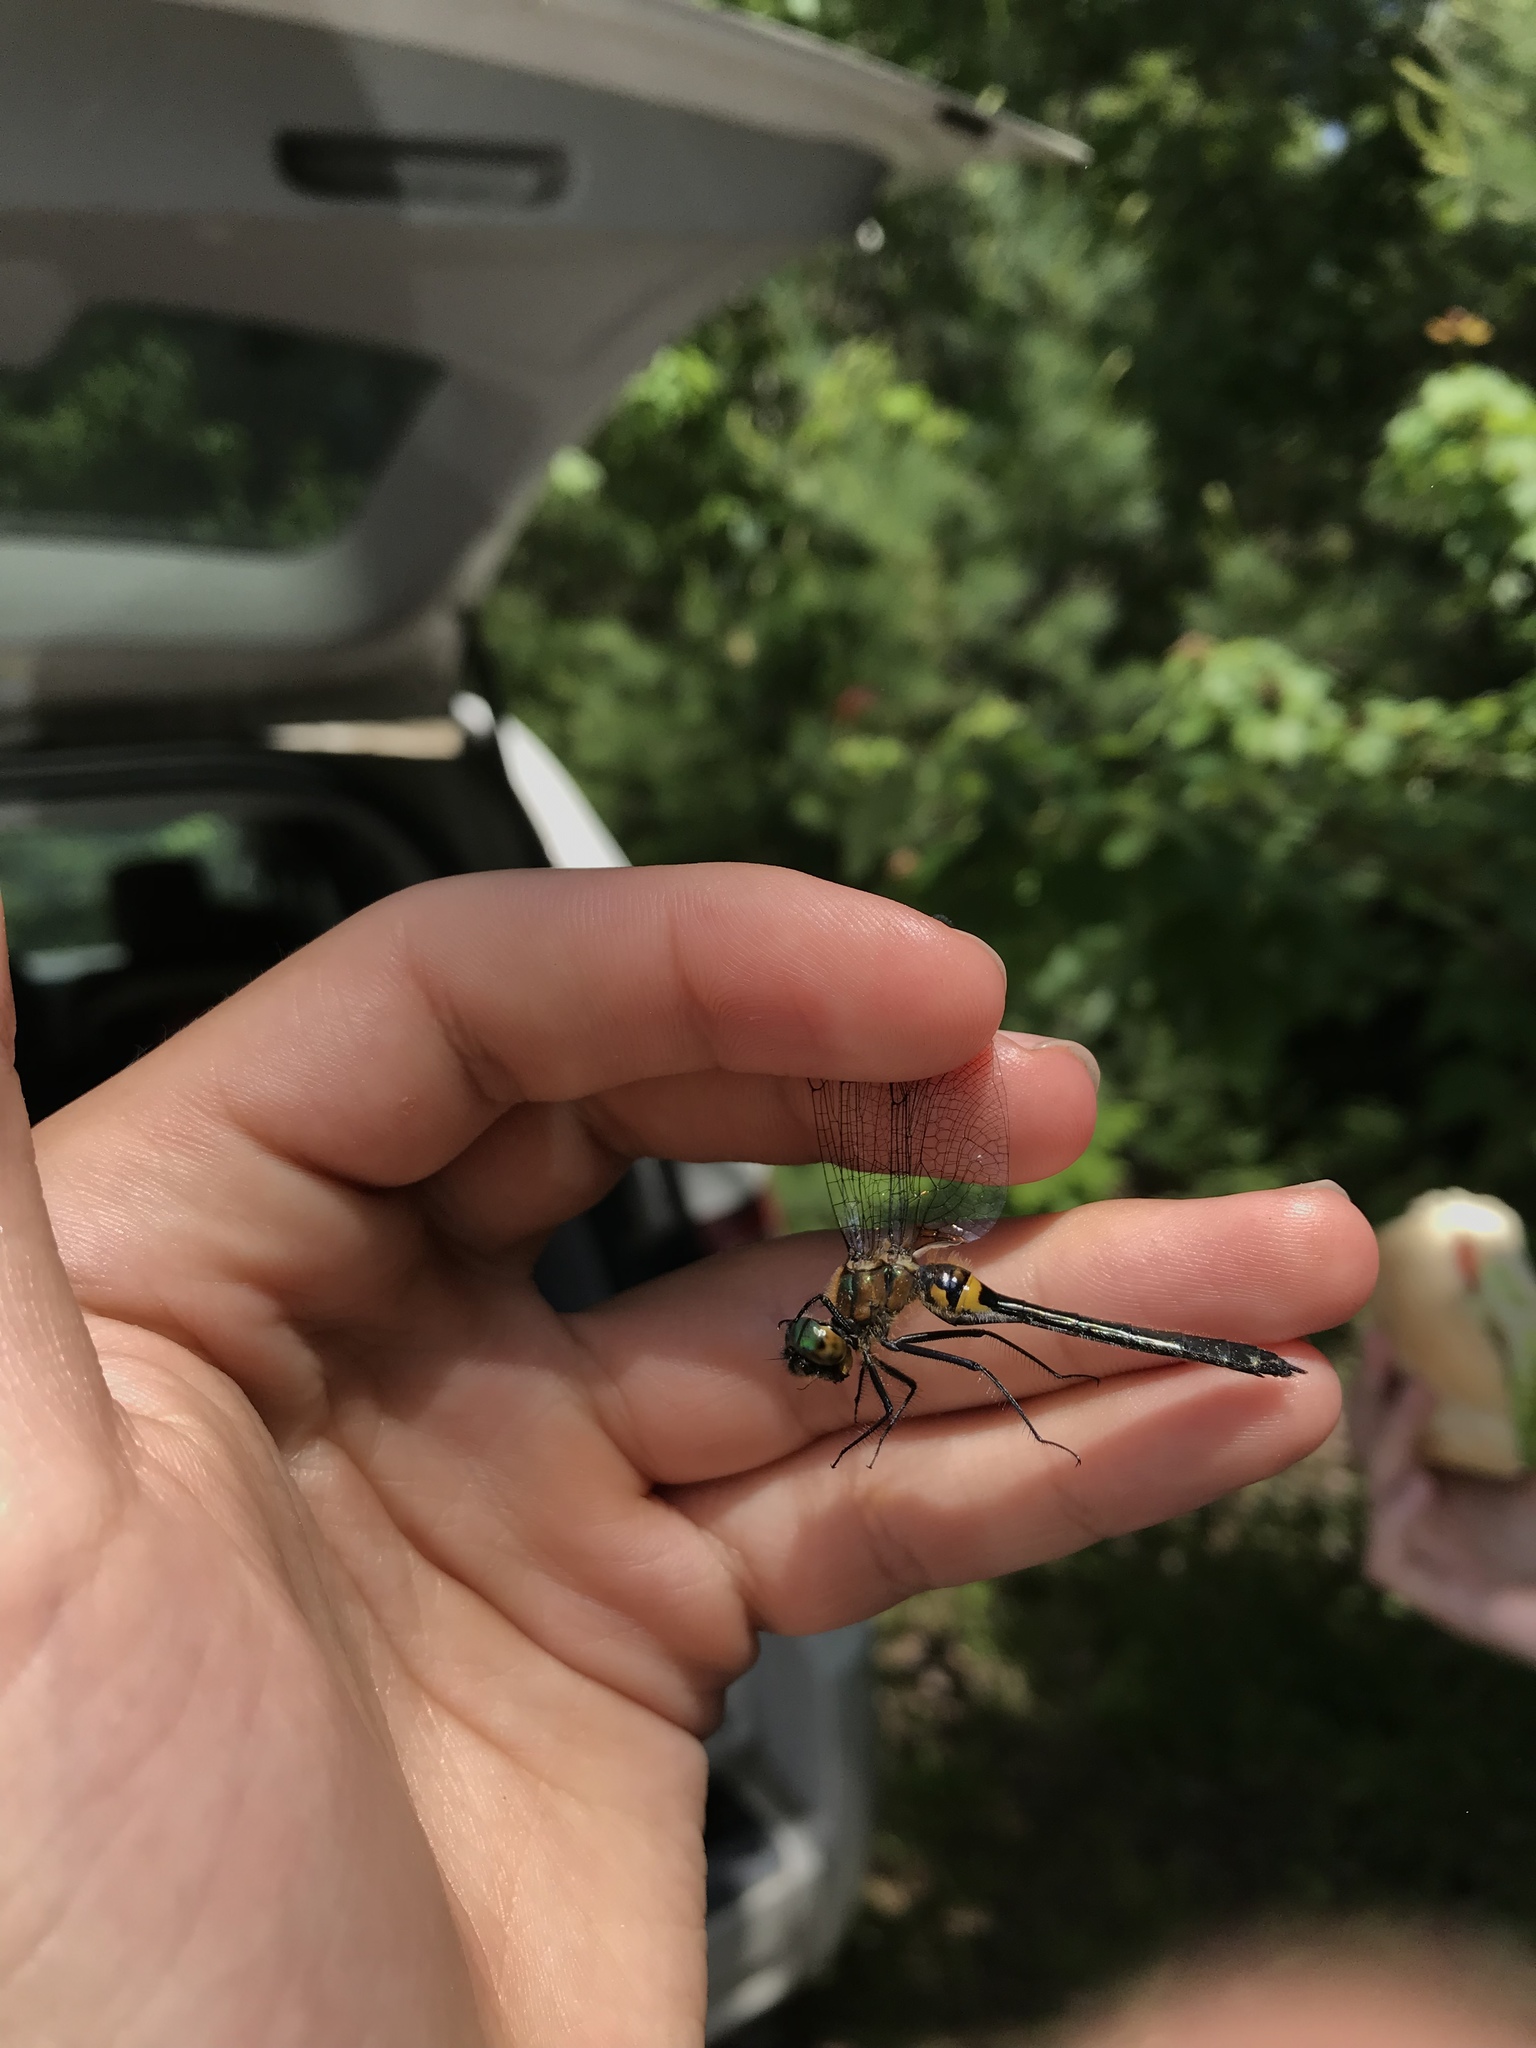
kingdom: Animalia
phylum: Arthropoda
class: Insecta
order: Odonata
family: Corduliidae
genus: Dorocordulia
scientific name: Dorocordulia libera
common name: Racket-tailed emerald
